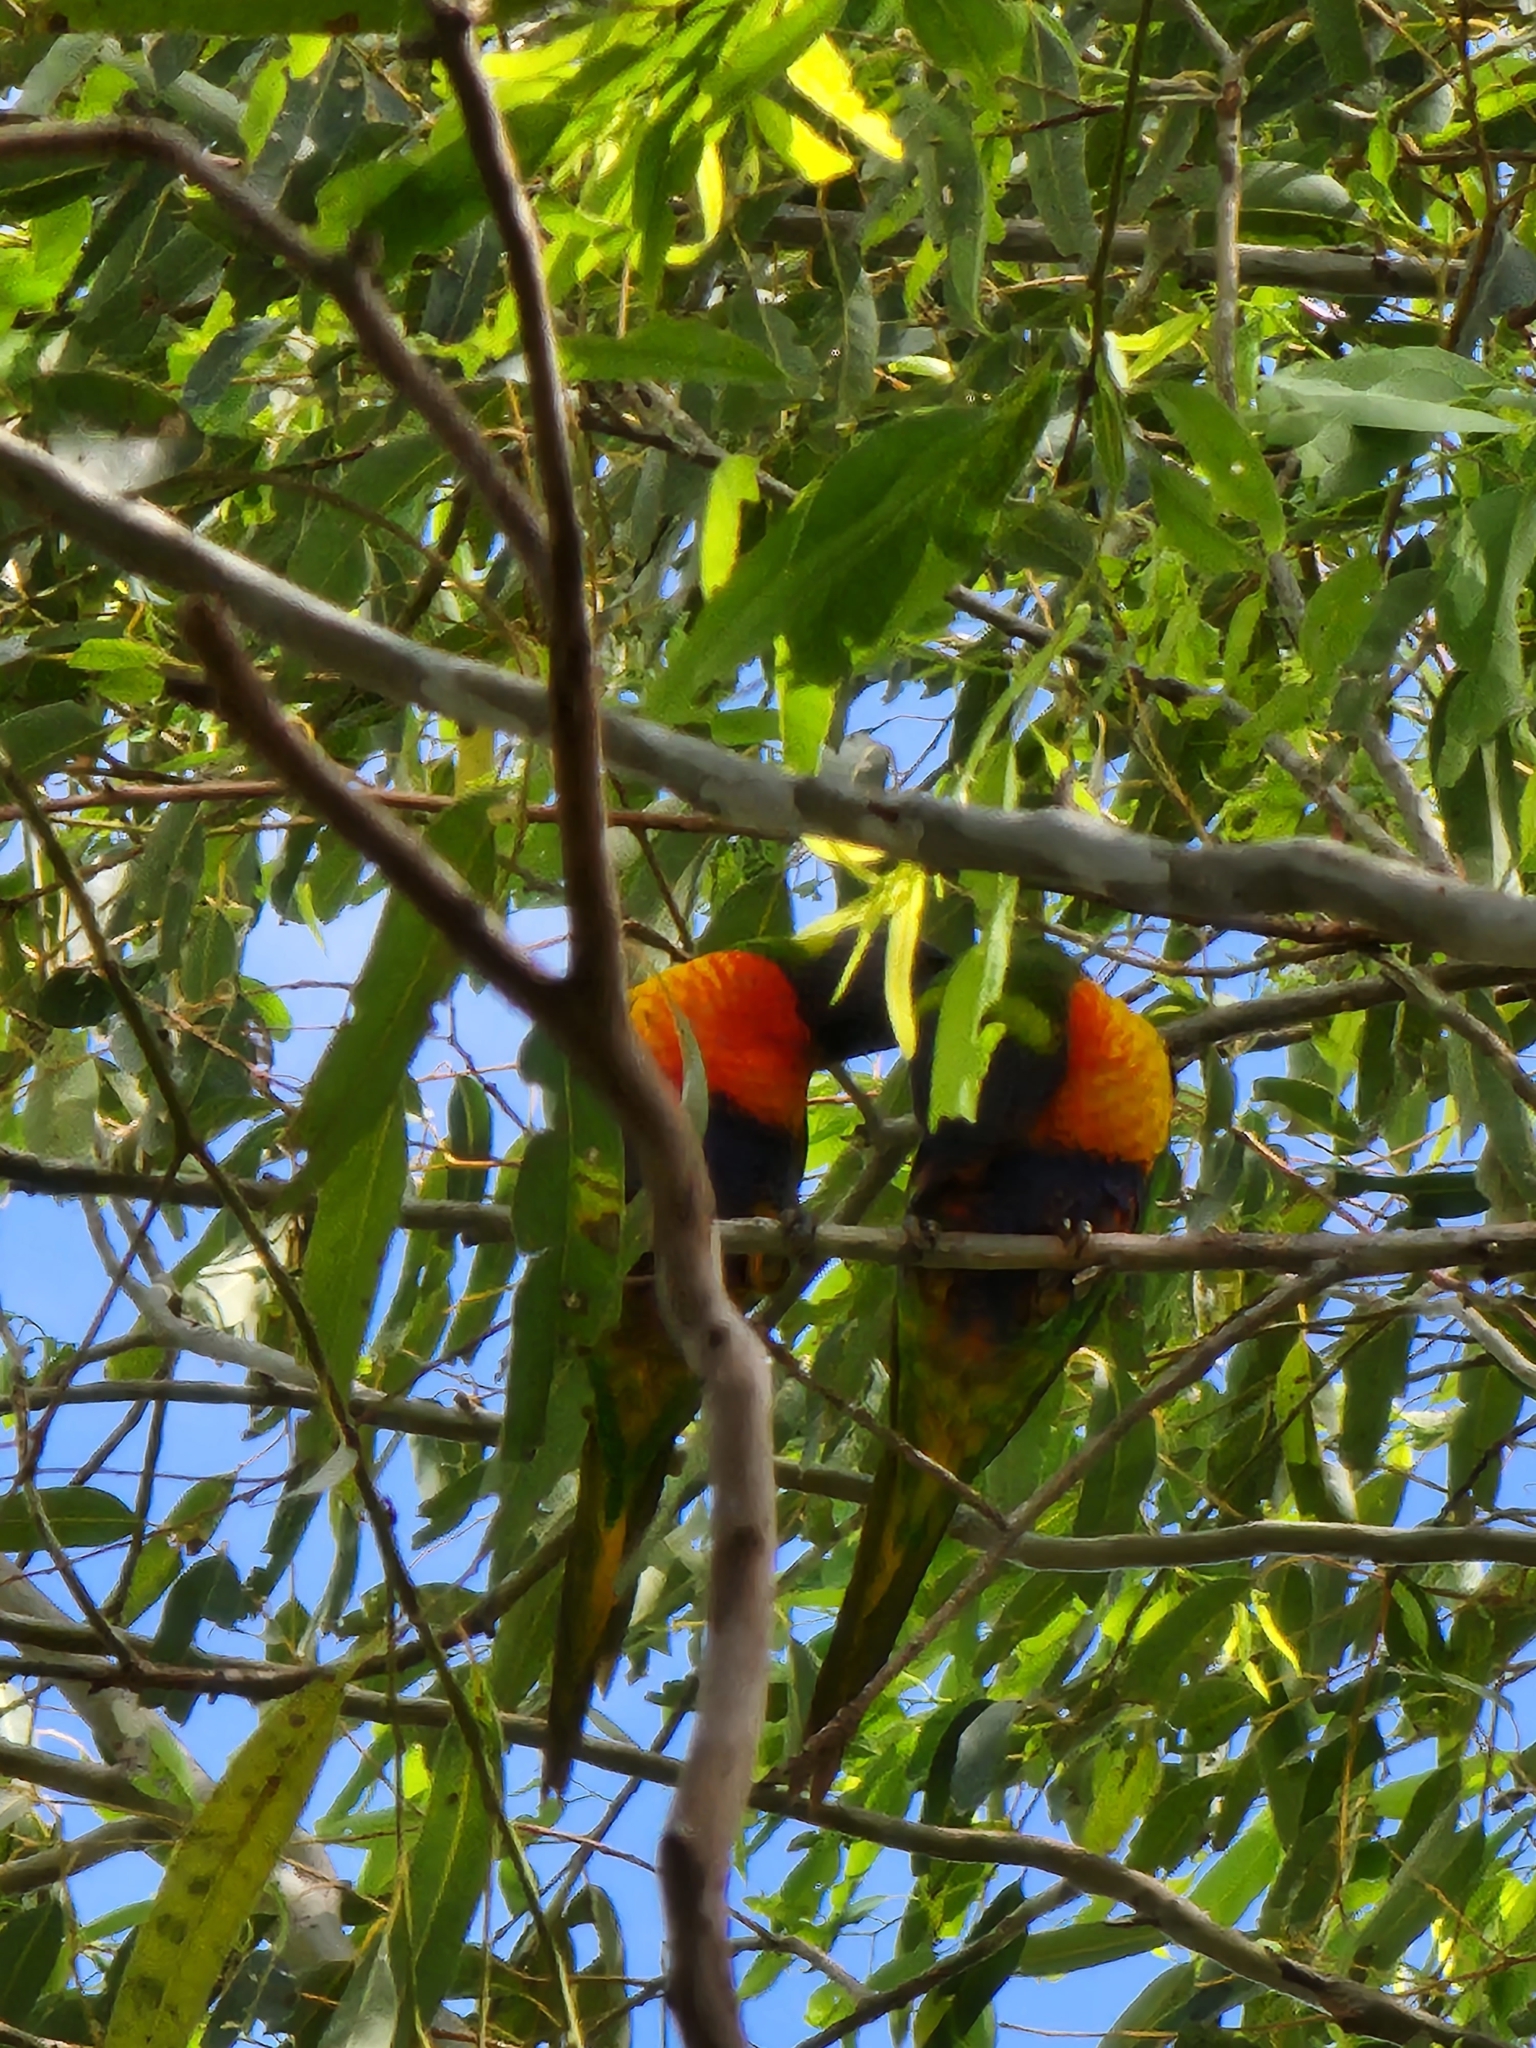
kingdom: Animalia
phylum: Chordata
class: Aves
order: Psittaciformes
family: Psittacidae
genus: Trichoglossus
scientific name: Trichoglossus haematodus
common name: Coconut lorikeet
